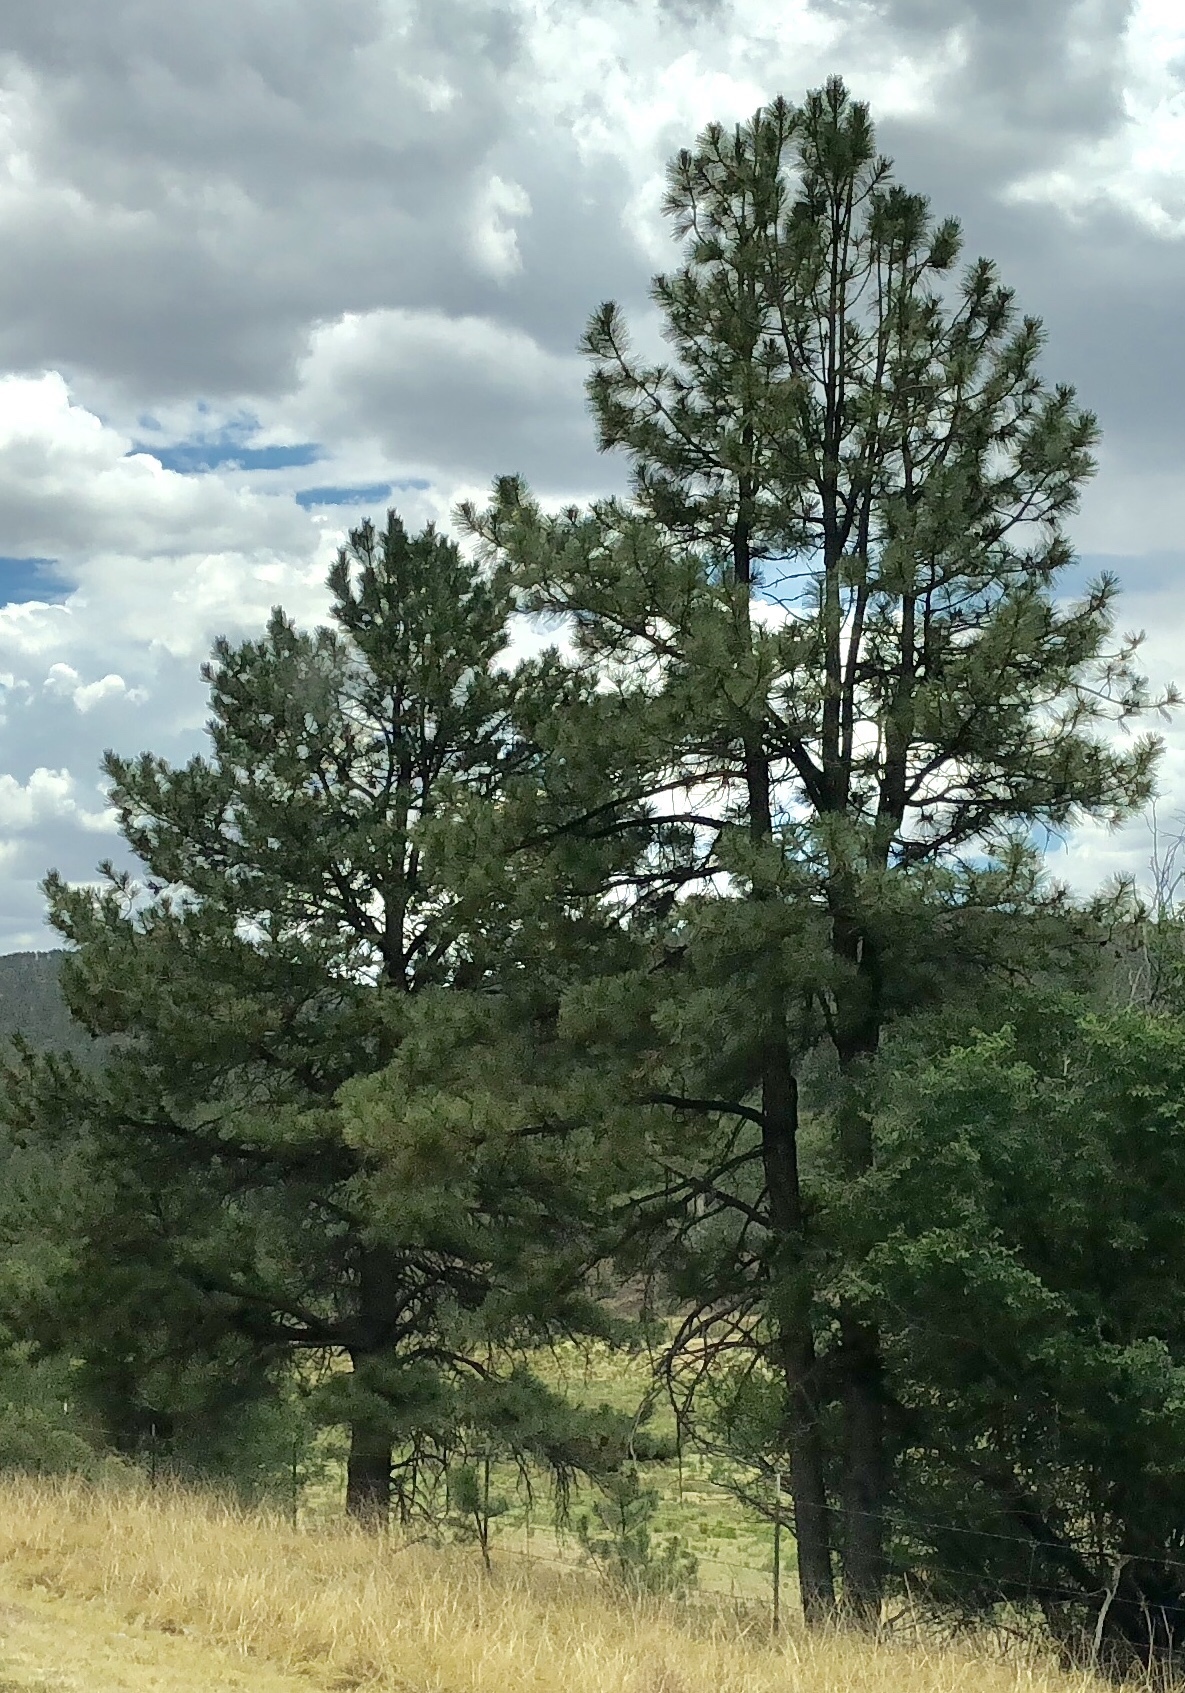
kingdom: Plantae
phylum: Tracheophyta
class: Pinopsida
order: Pinales
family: Pinaceae
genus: Pinus
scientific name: Pinus ponderosa
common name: Western yellow-pine
